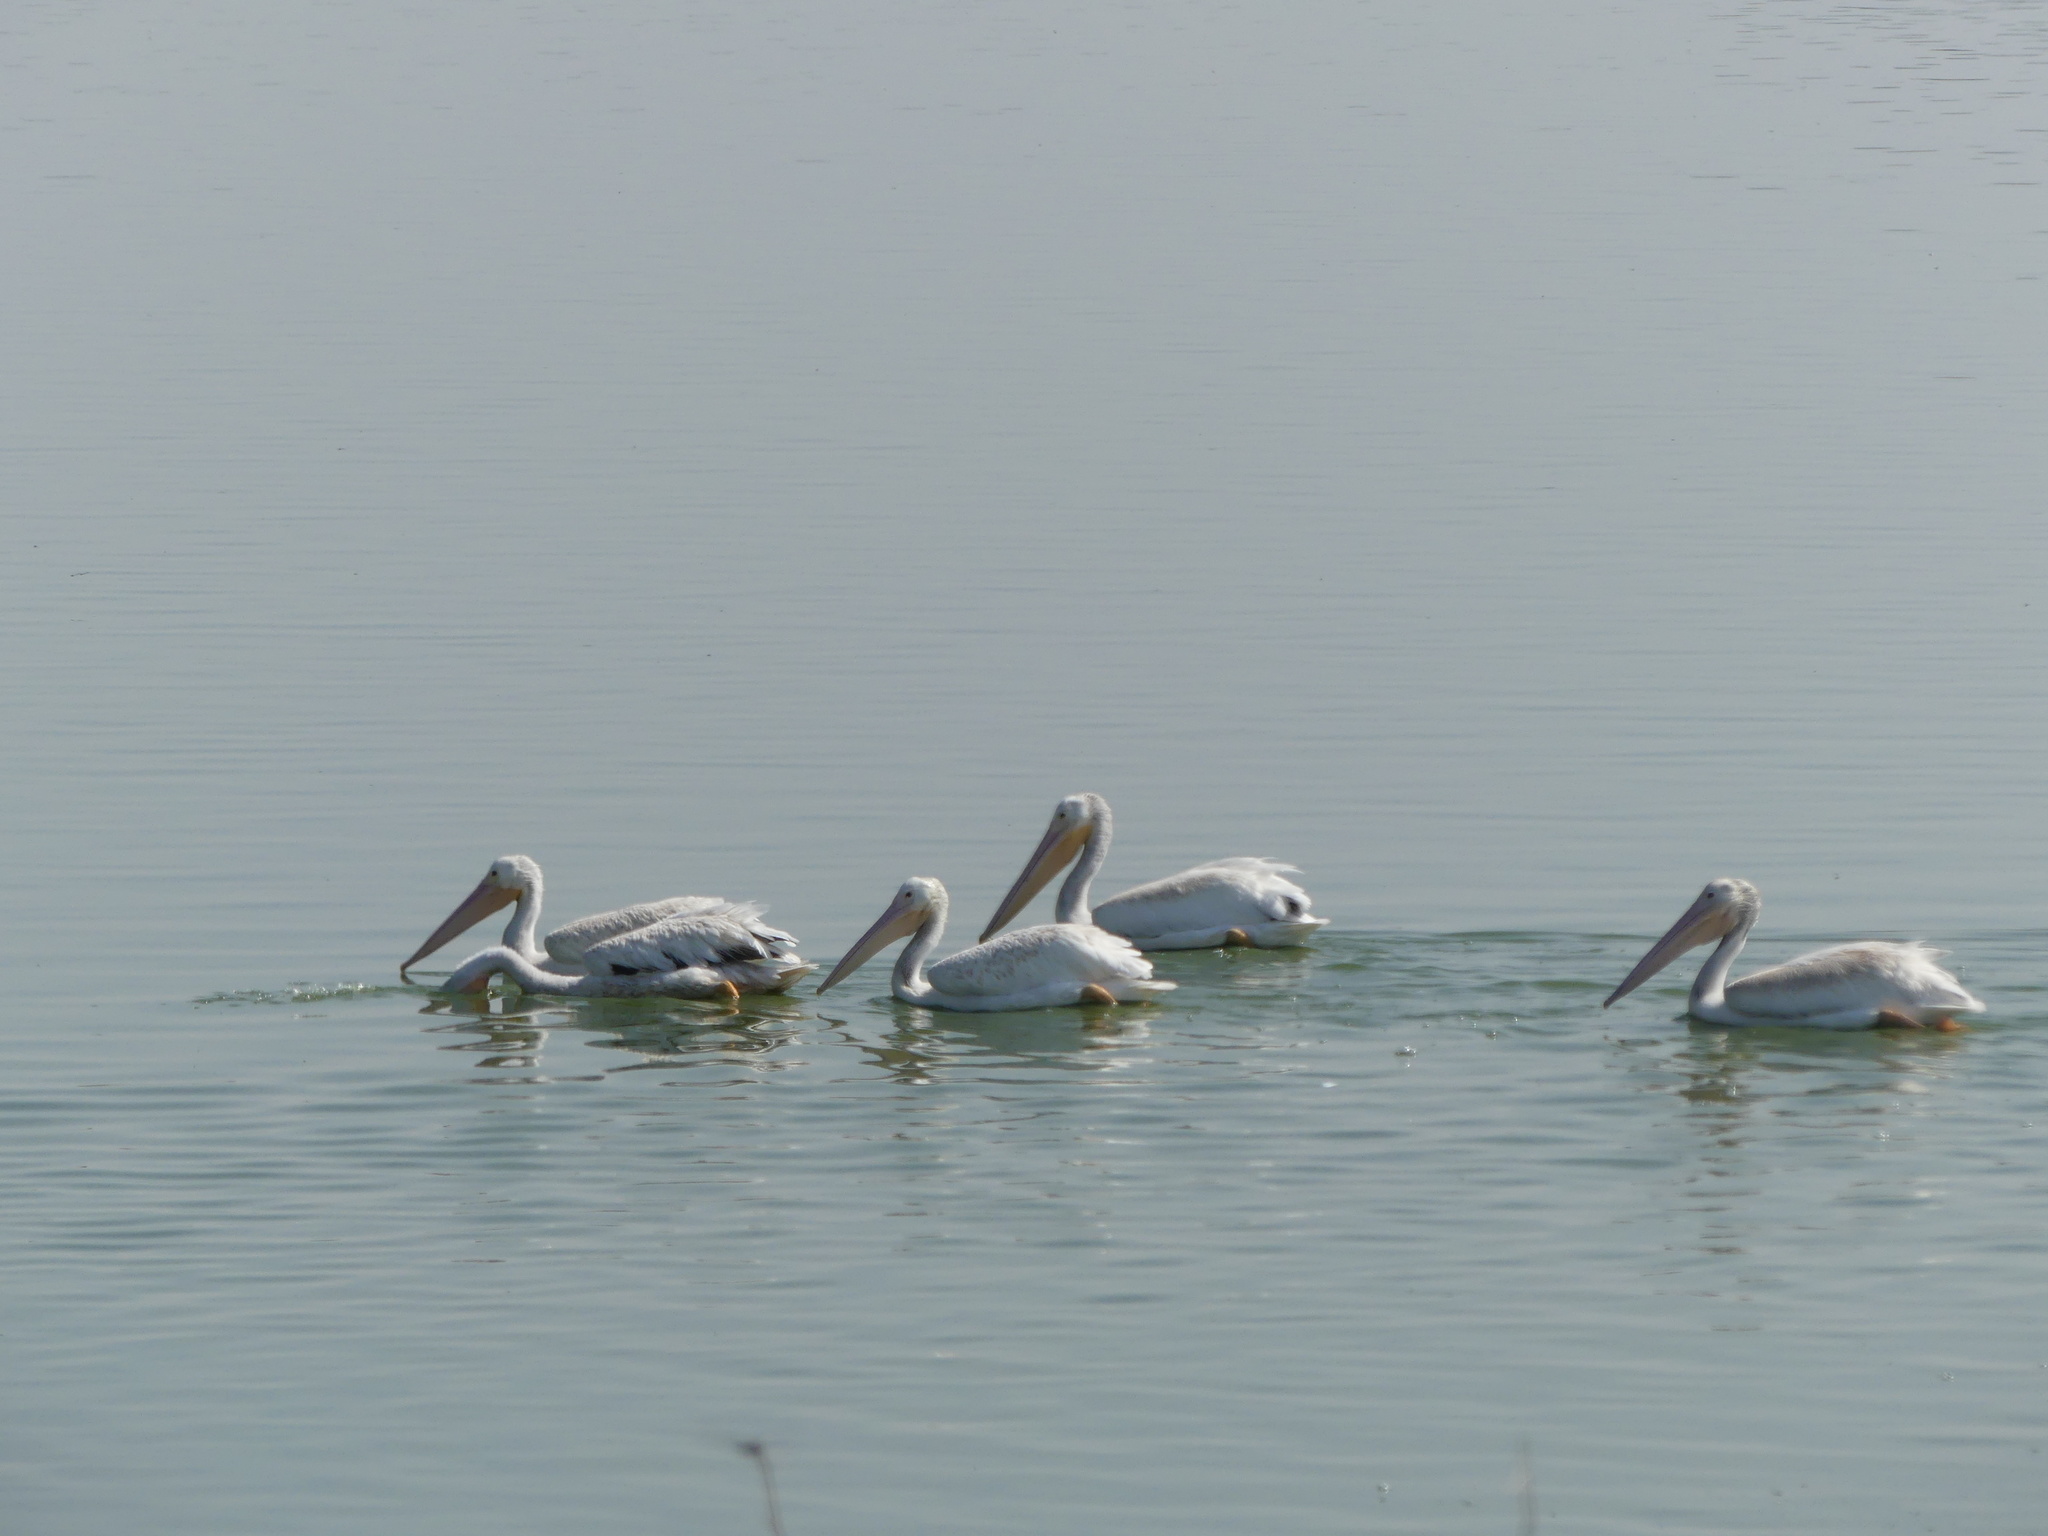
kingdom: Animalia
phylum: Chordata
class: Aves
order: Pelecaniformes
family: Pelecanidae
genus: Pelecanus
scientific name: Pelecanus erythrorhynchos
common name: American white pelican
